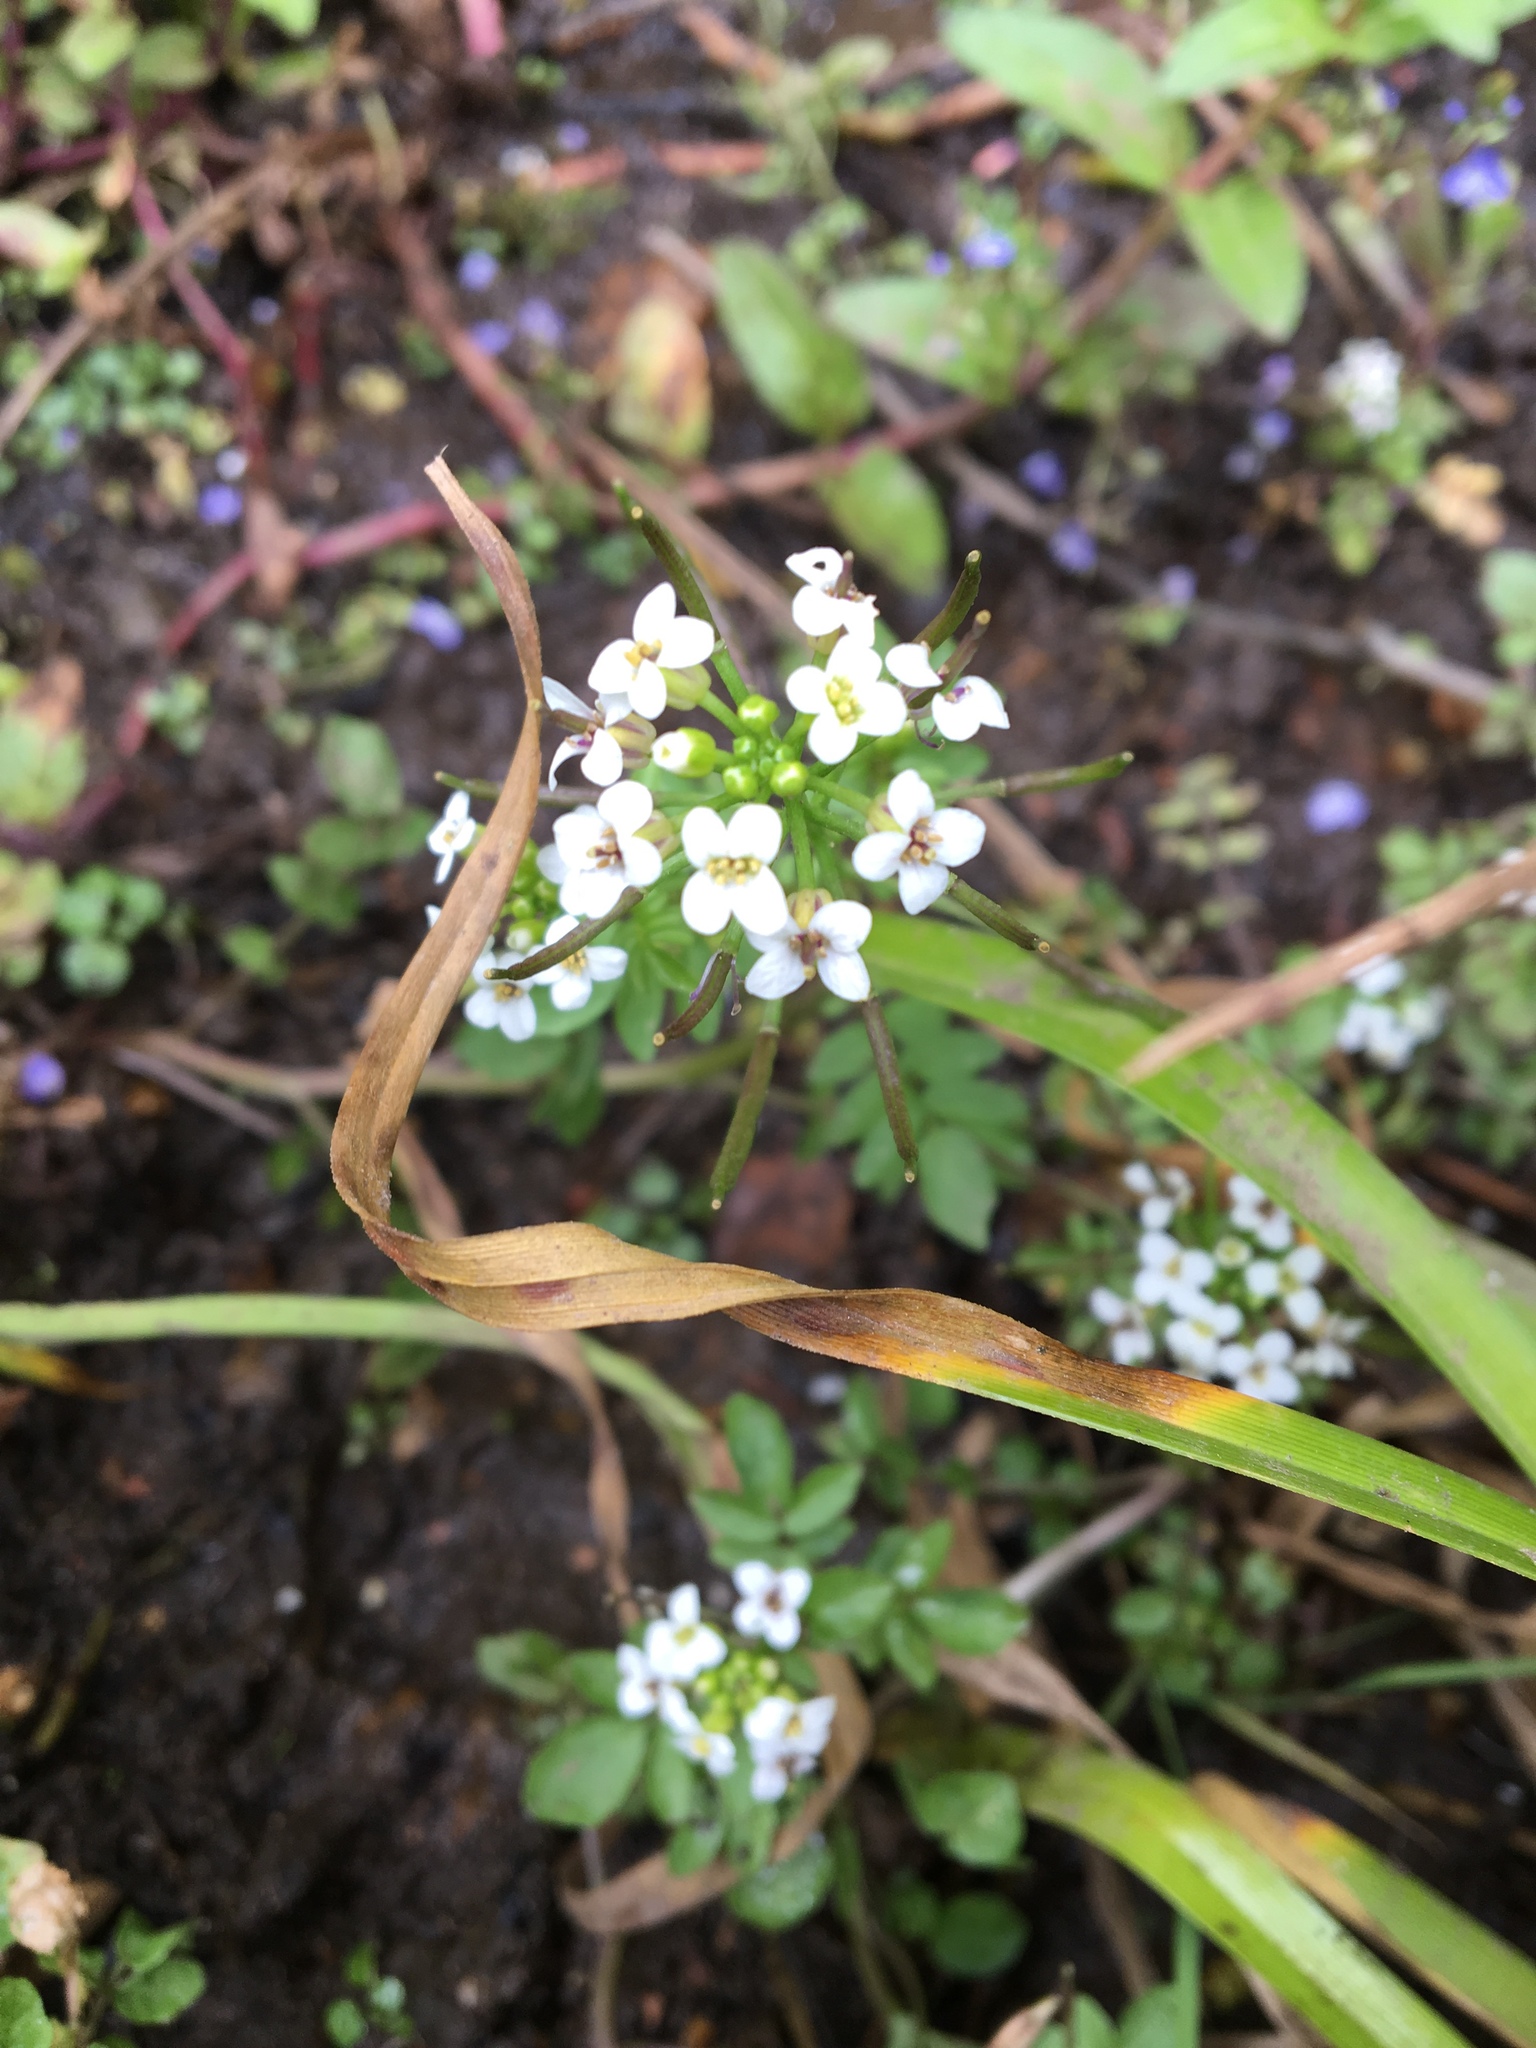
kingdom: Plantae
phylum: Tracheophyta
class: Magnoliopsida
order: Brassicales
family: Brassicaceae
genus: Nasturtium
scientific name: Nasturtium officinale
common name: Watercress
